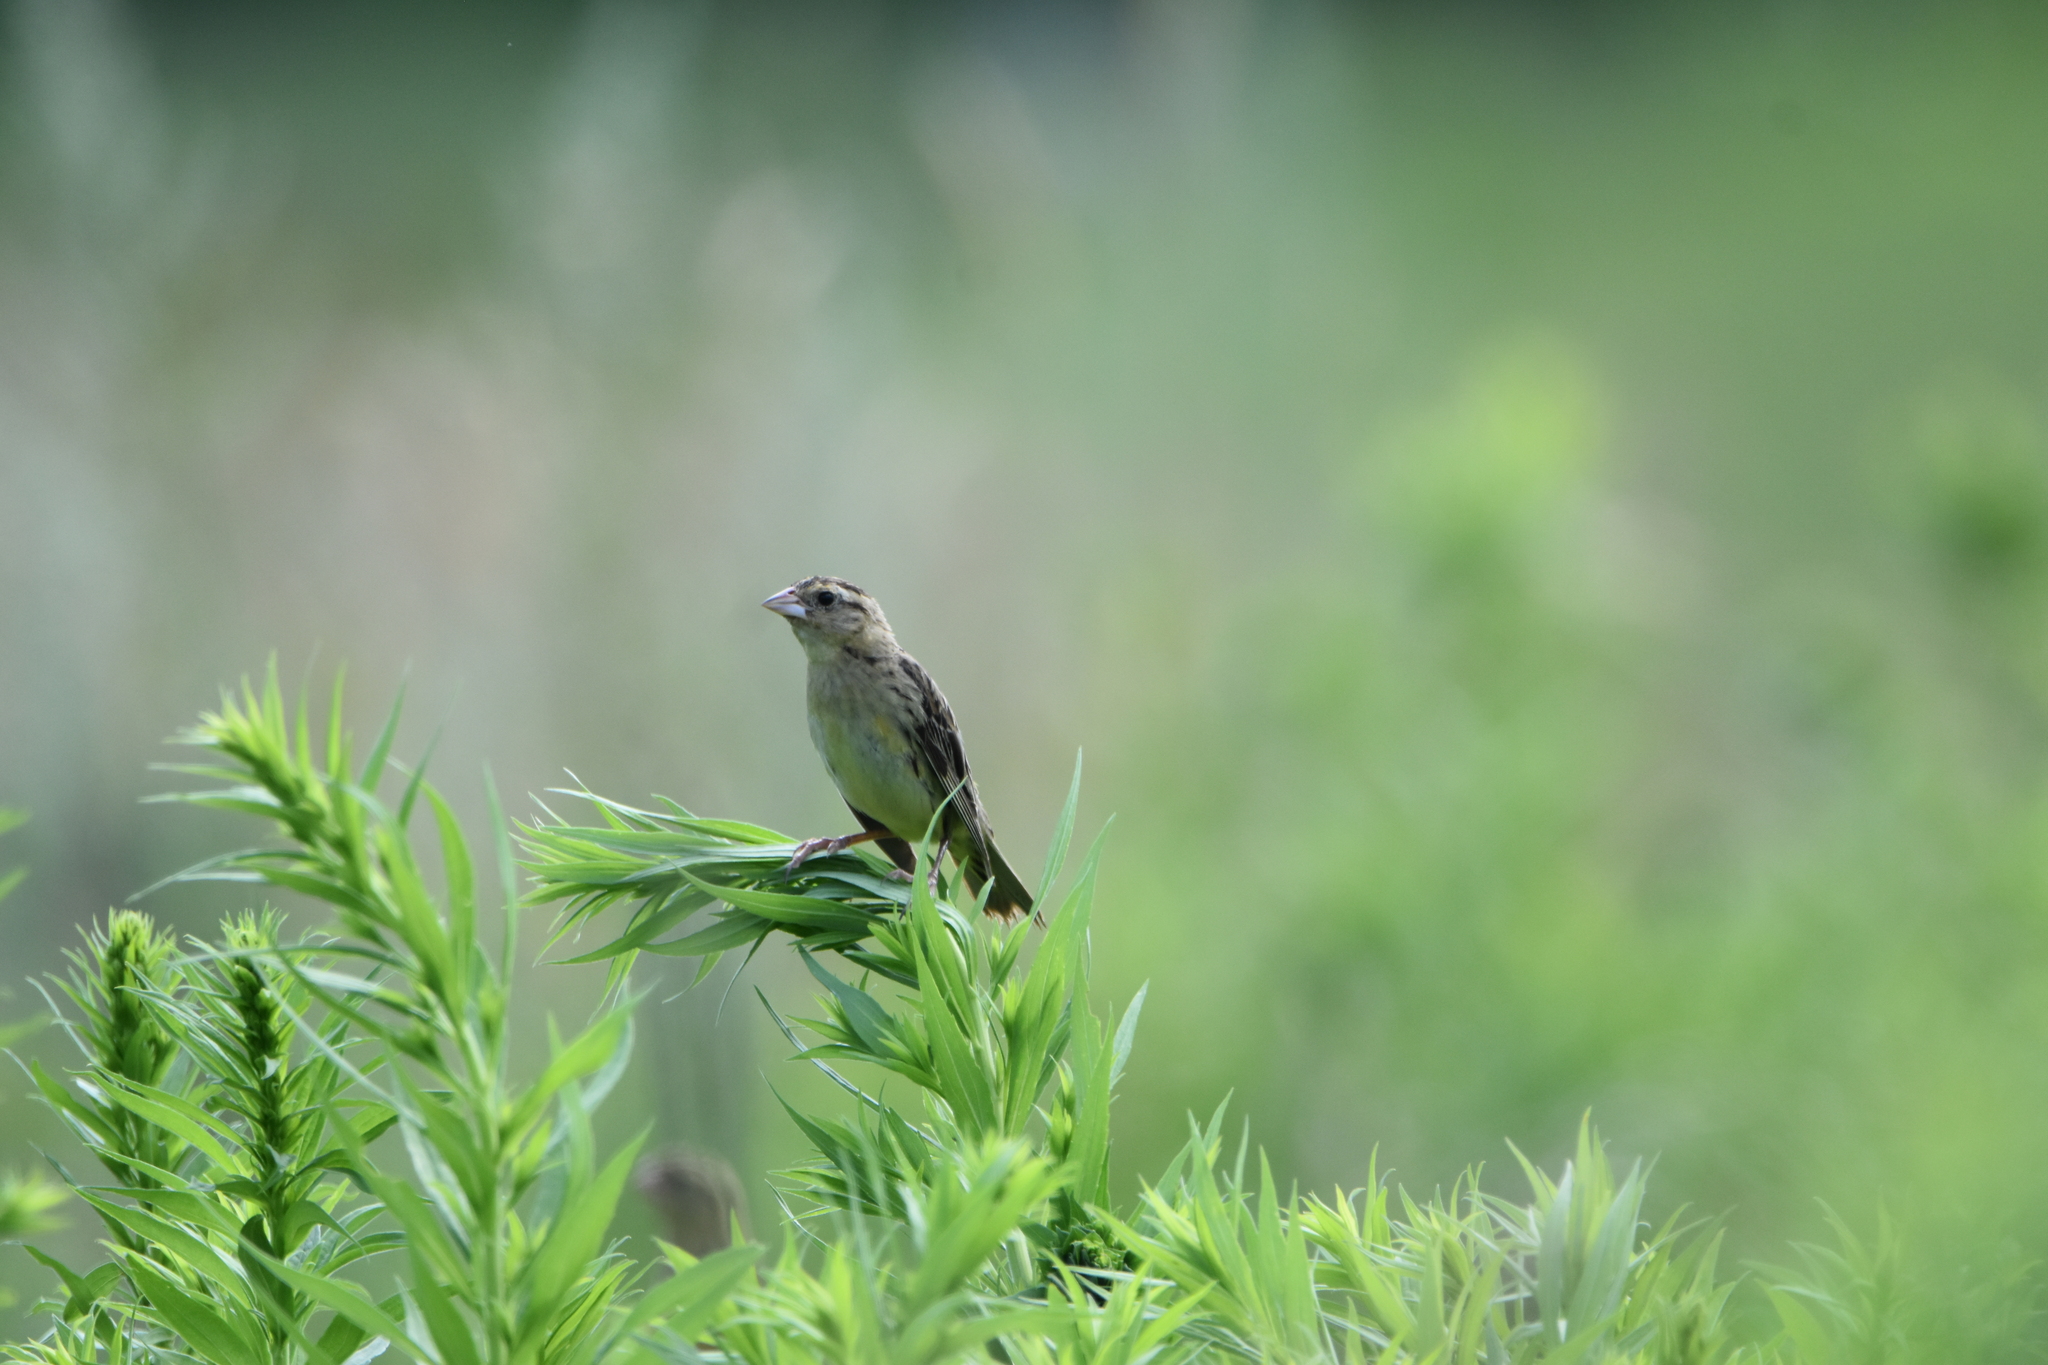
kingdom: Animalia
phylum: Chordata
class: Aves
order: Passeriformes
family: Icteridae
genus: Dolichonyx
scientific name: Dolichonyx oryzivorus
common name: Bobolink
